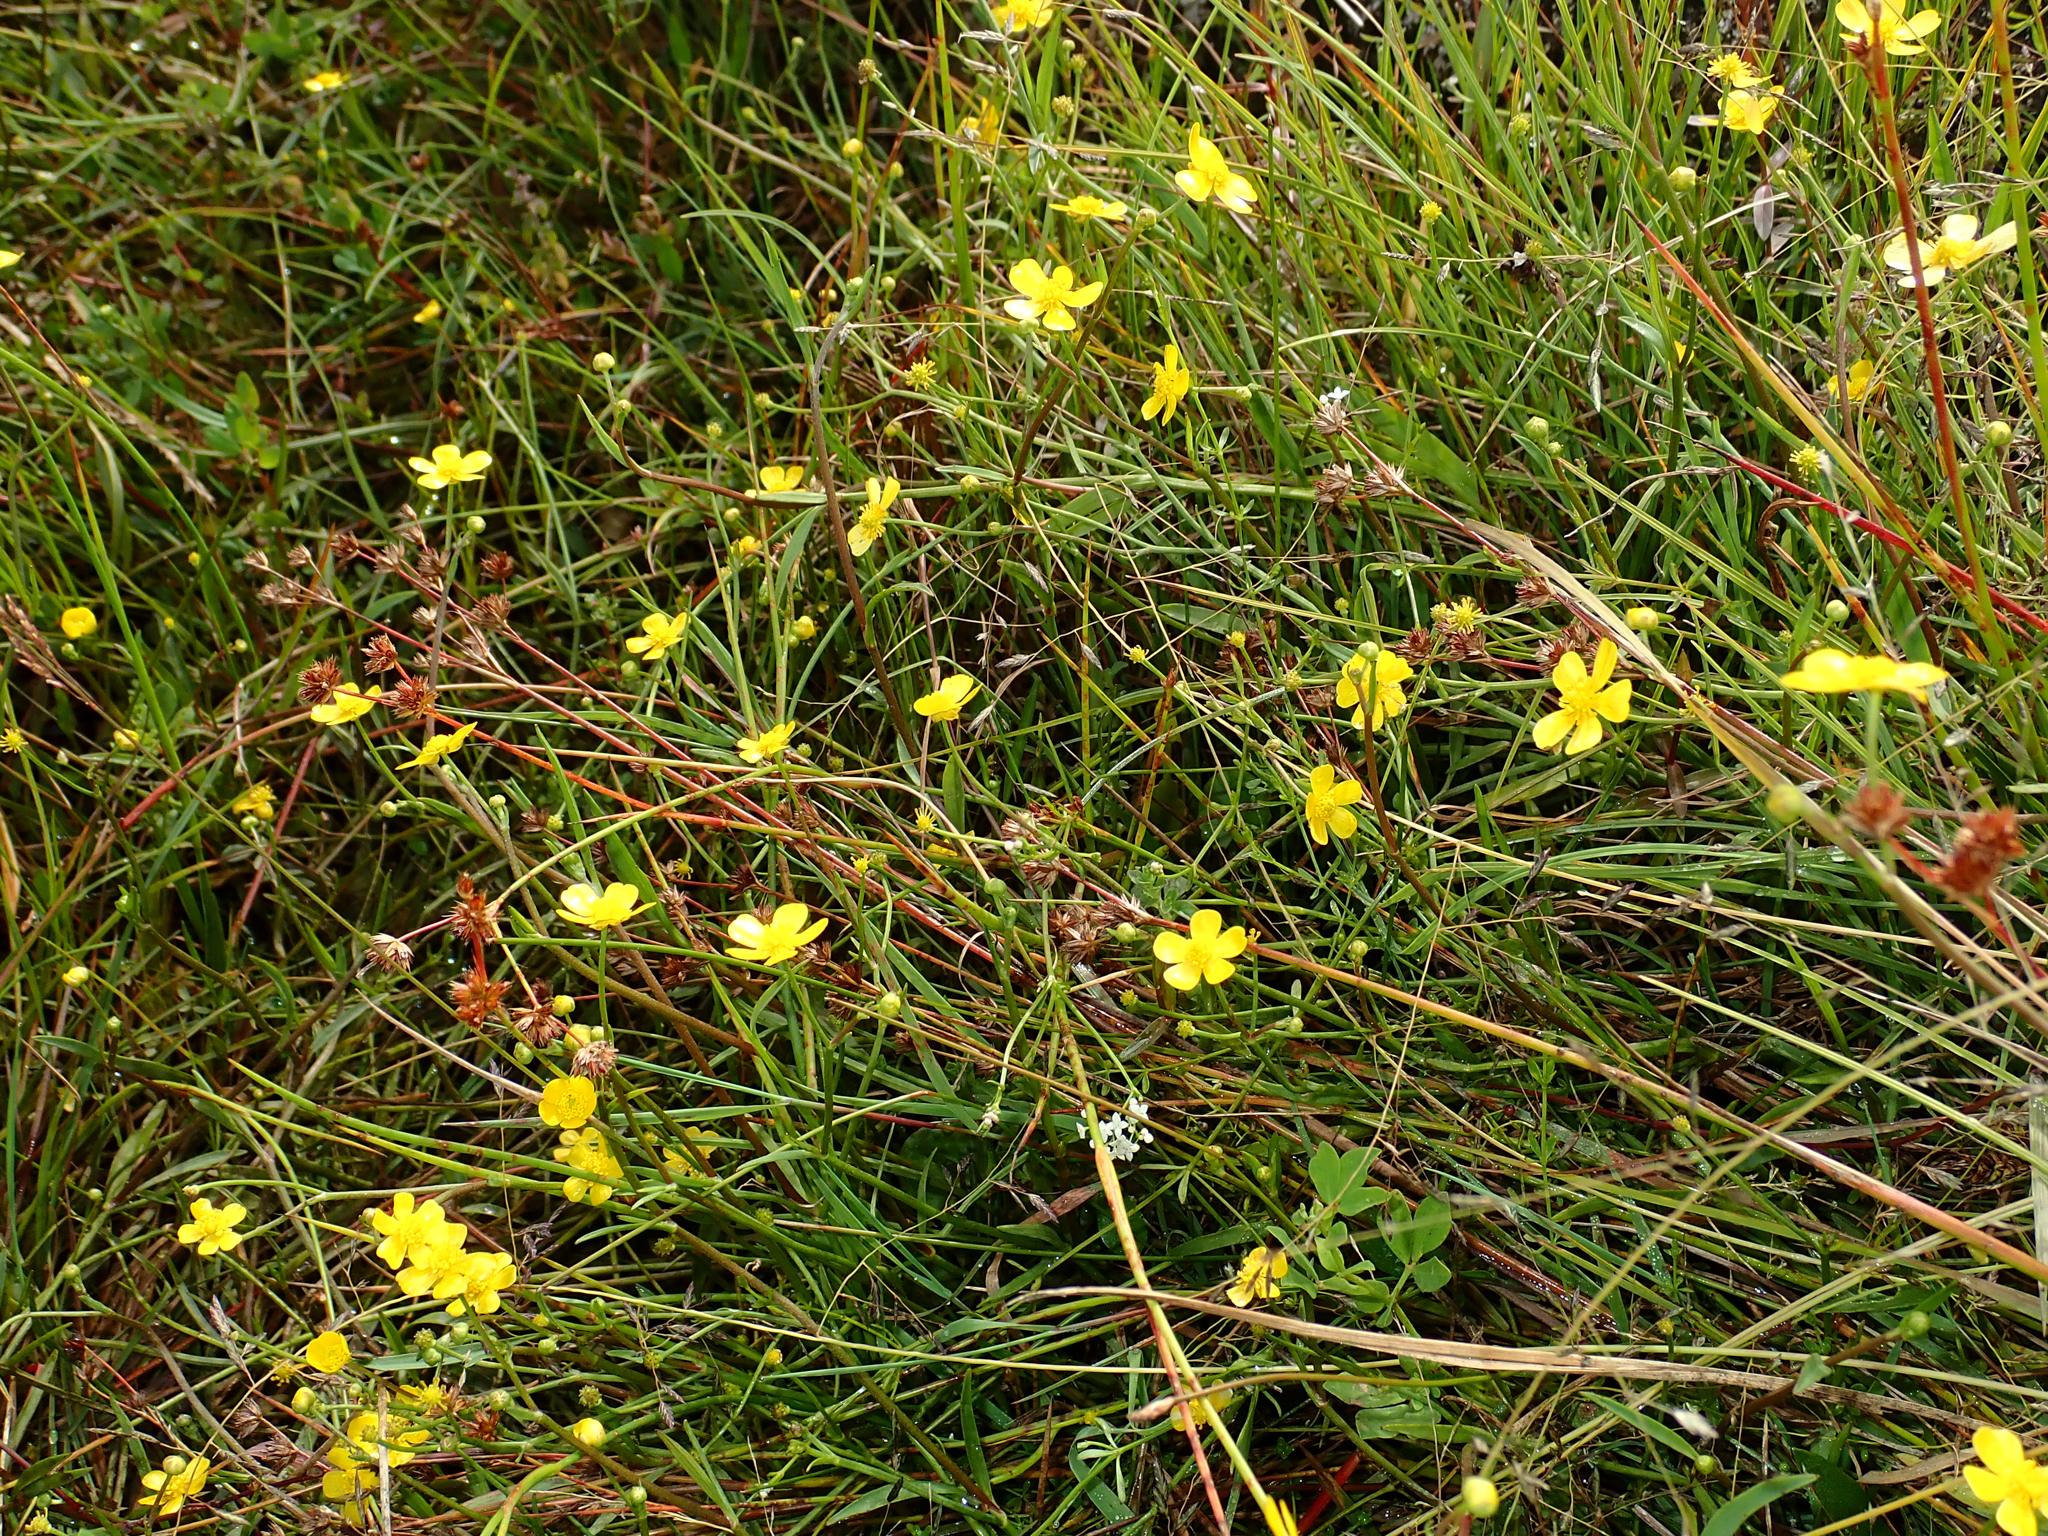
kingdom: Plantae
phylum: Tracheophyta
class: Magnoliopsida
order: Ranunculales
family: Ranunculaceae
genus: Ranunculus
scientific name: Ranunculus flammula
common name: Lesser spearwort
